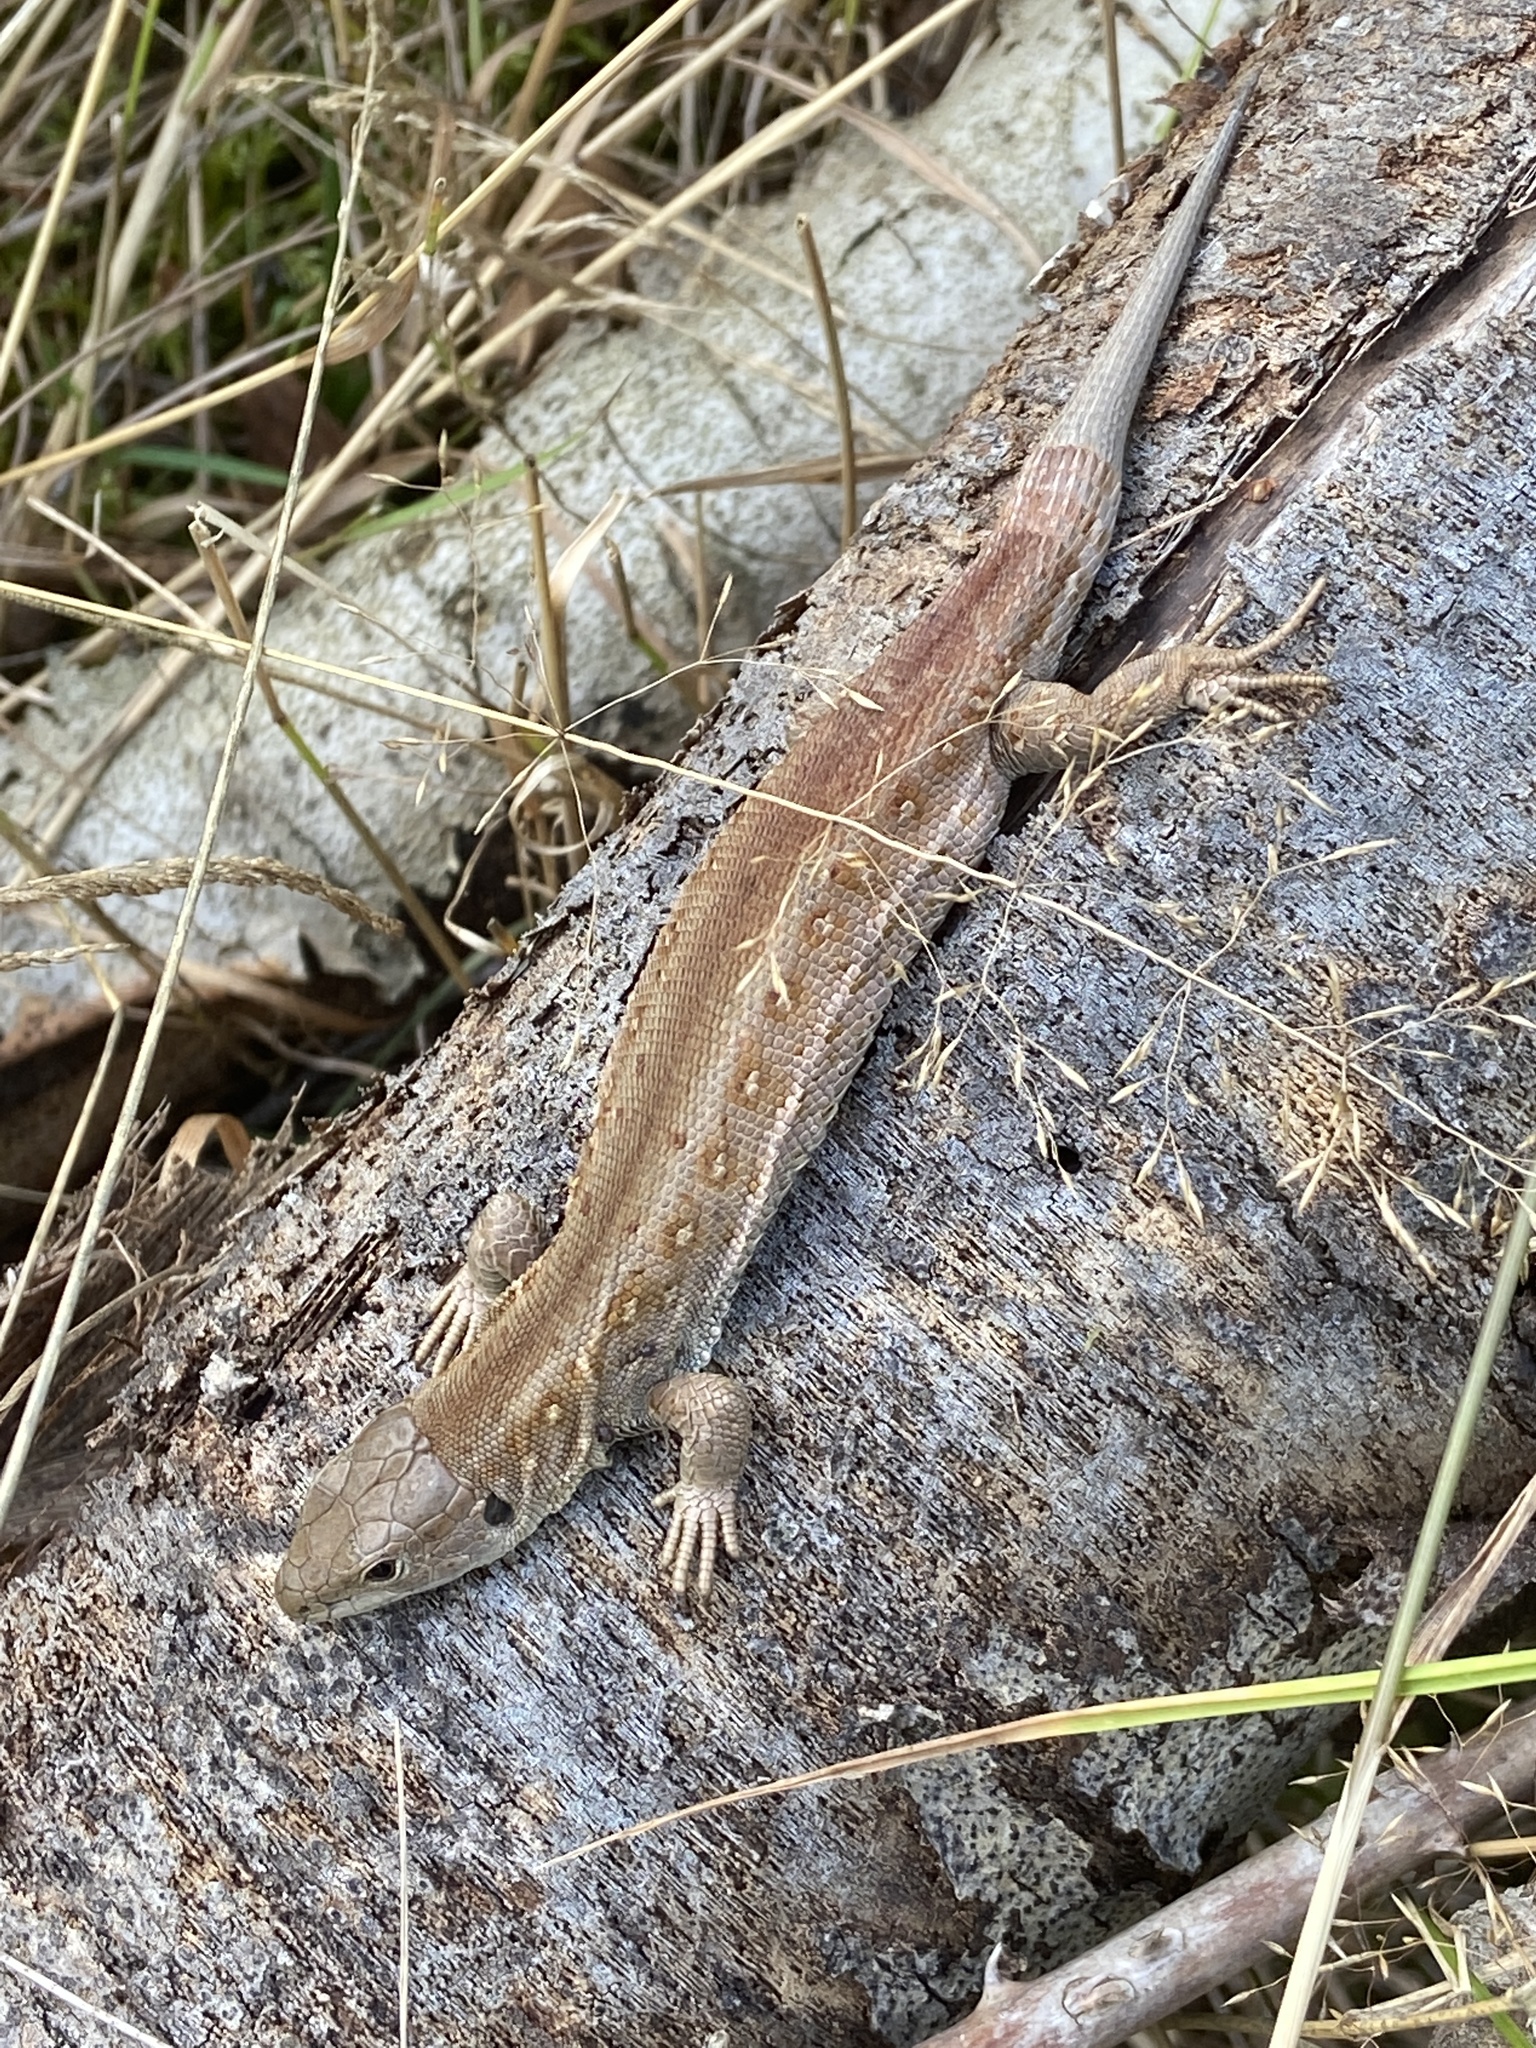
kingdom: Animalia
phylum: Chordata
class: Squamata
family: Lacertidae
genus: Lacerta
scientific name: Lacerta agilis
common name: Sand lizard
